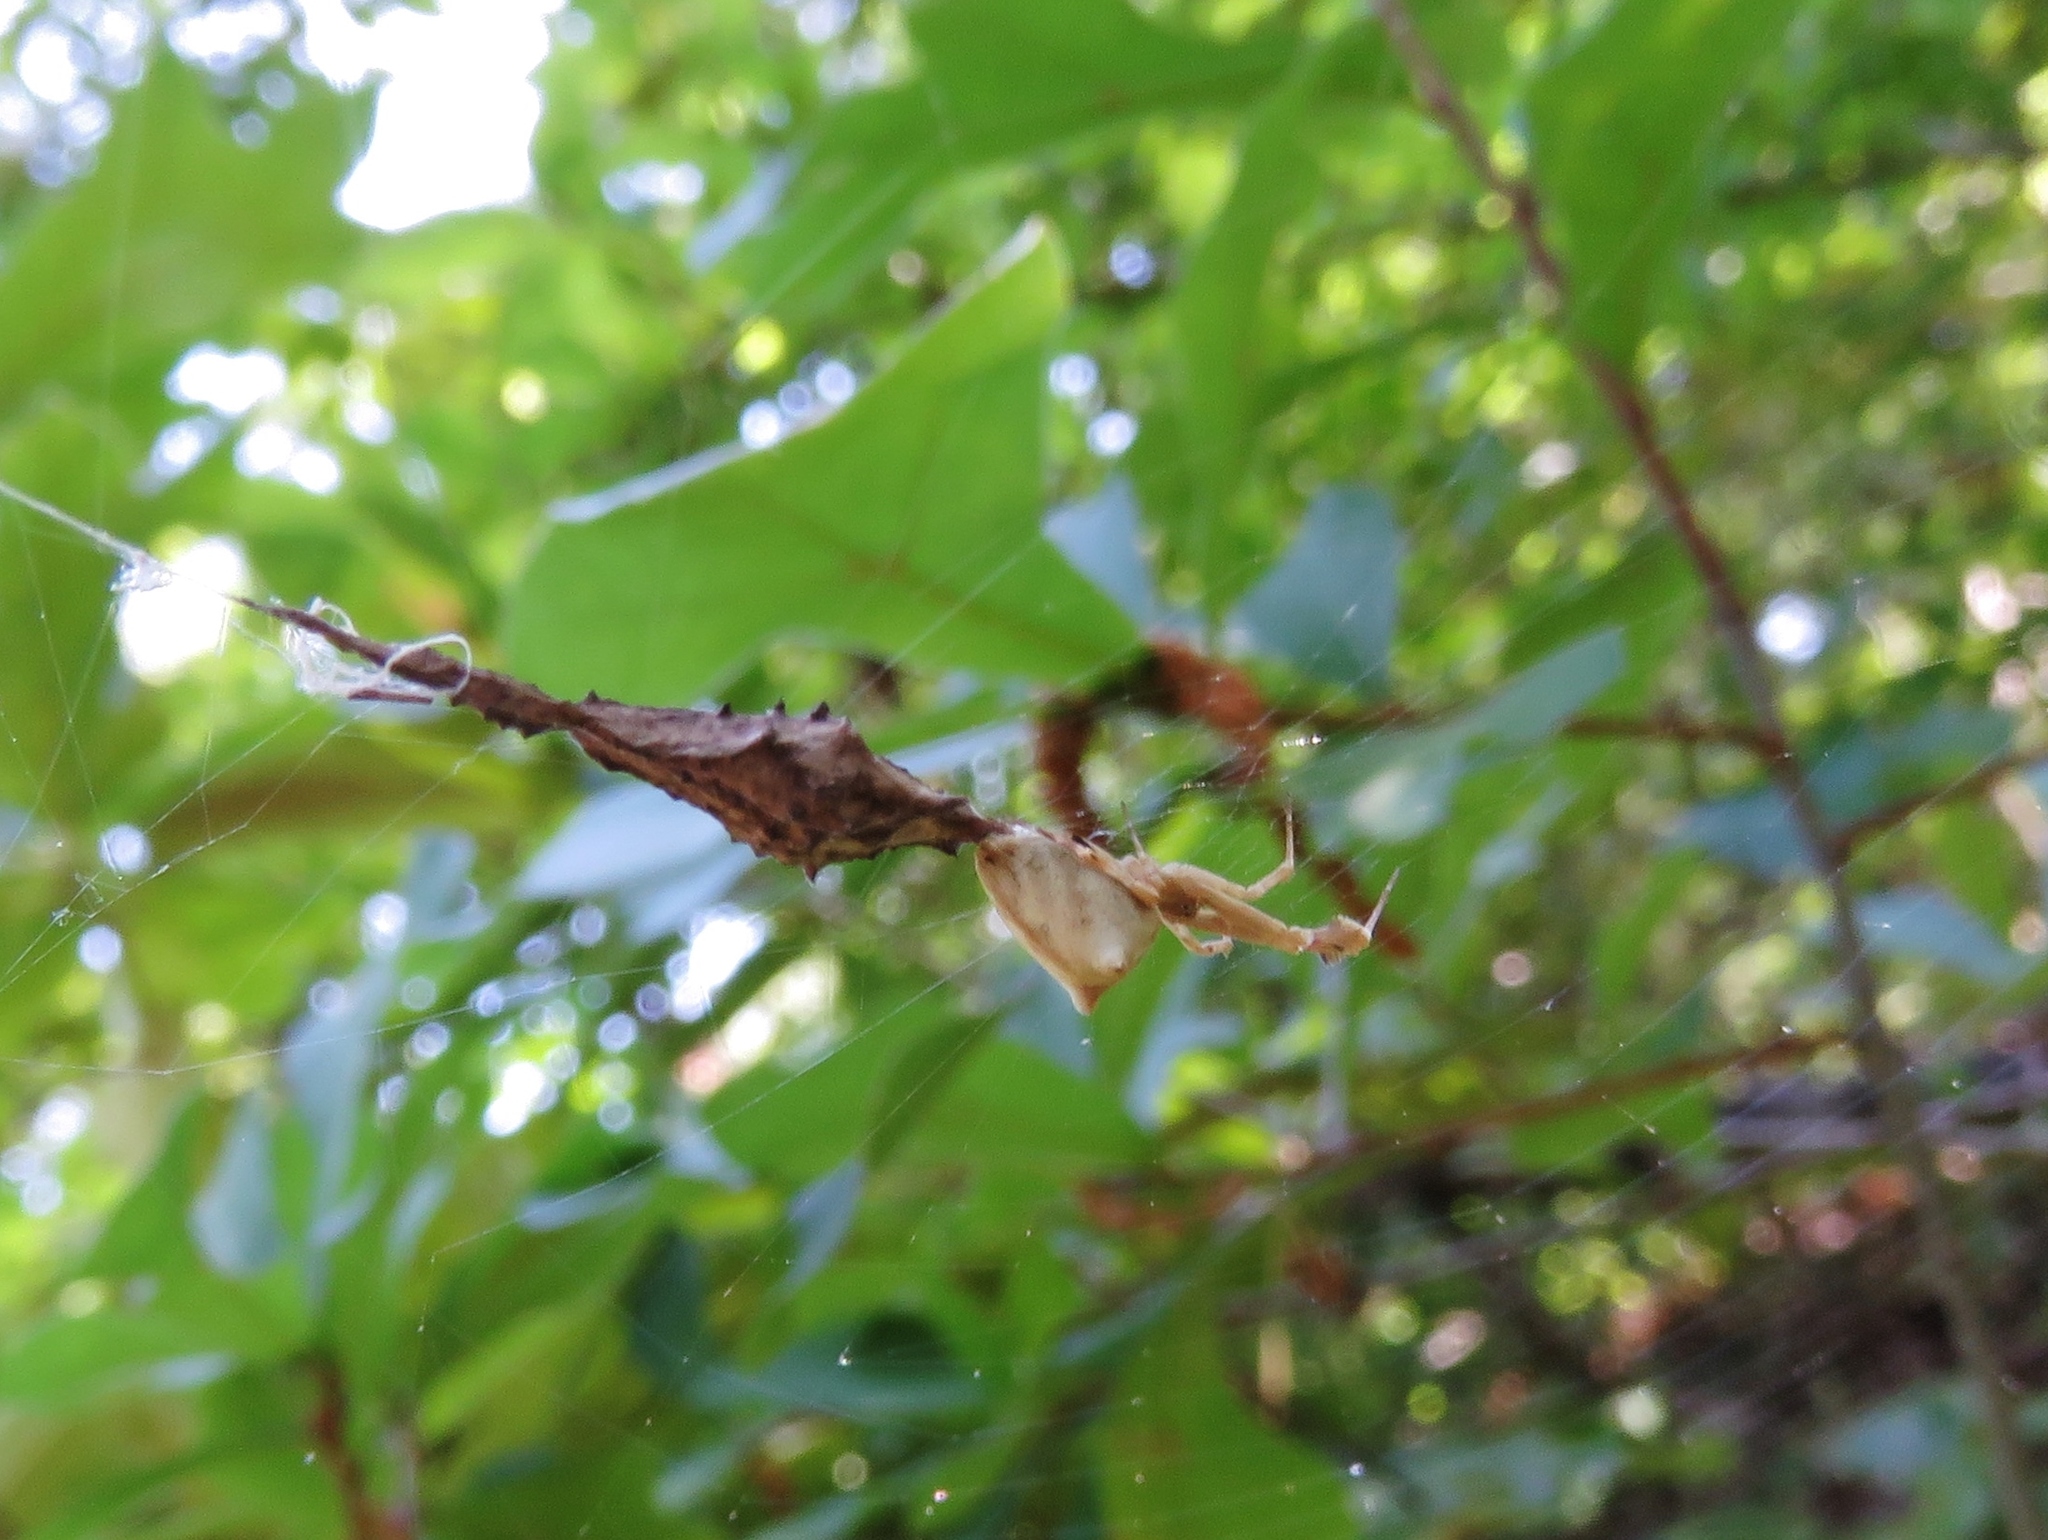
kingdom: Animalia
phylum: Arthropoda
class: Arachnida
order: Araneae
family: Uloboridae
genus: Uloborus
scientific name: Uloborus glomosus
